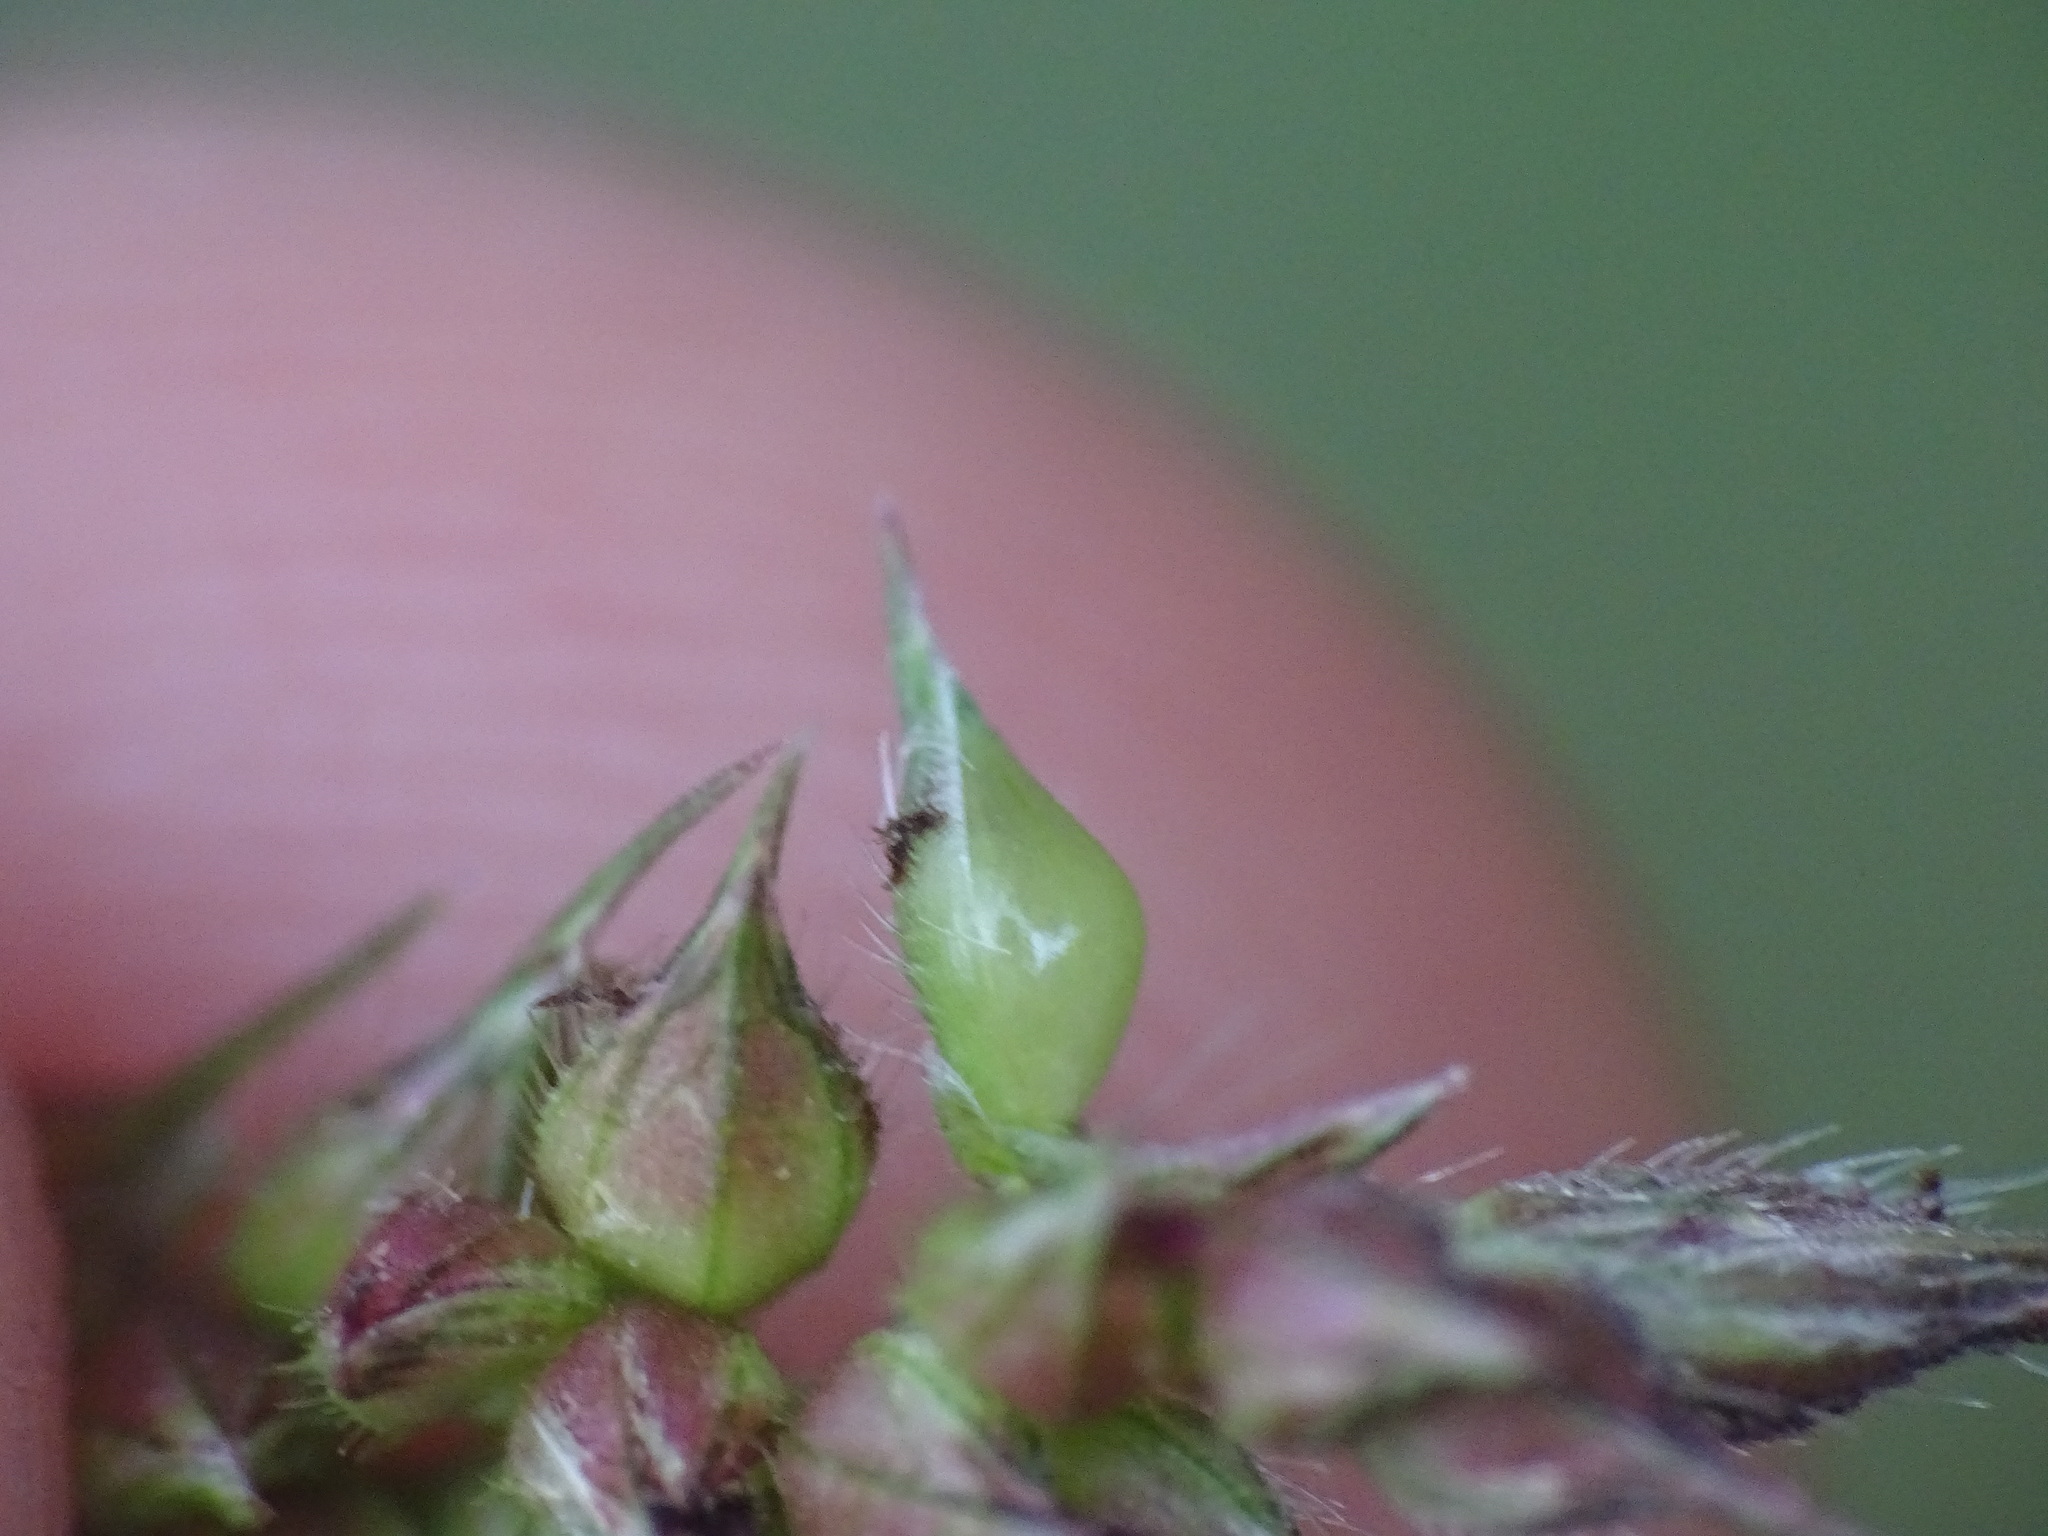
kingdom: Plantae
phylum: Tracheophyta
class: Liliopsida
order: Poales
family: Poaceae
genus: Echinochloa
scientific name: Echinochloa muricata
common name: American barnyard grass
